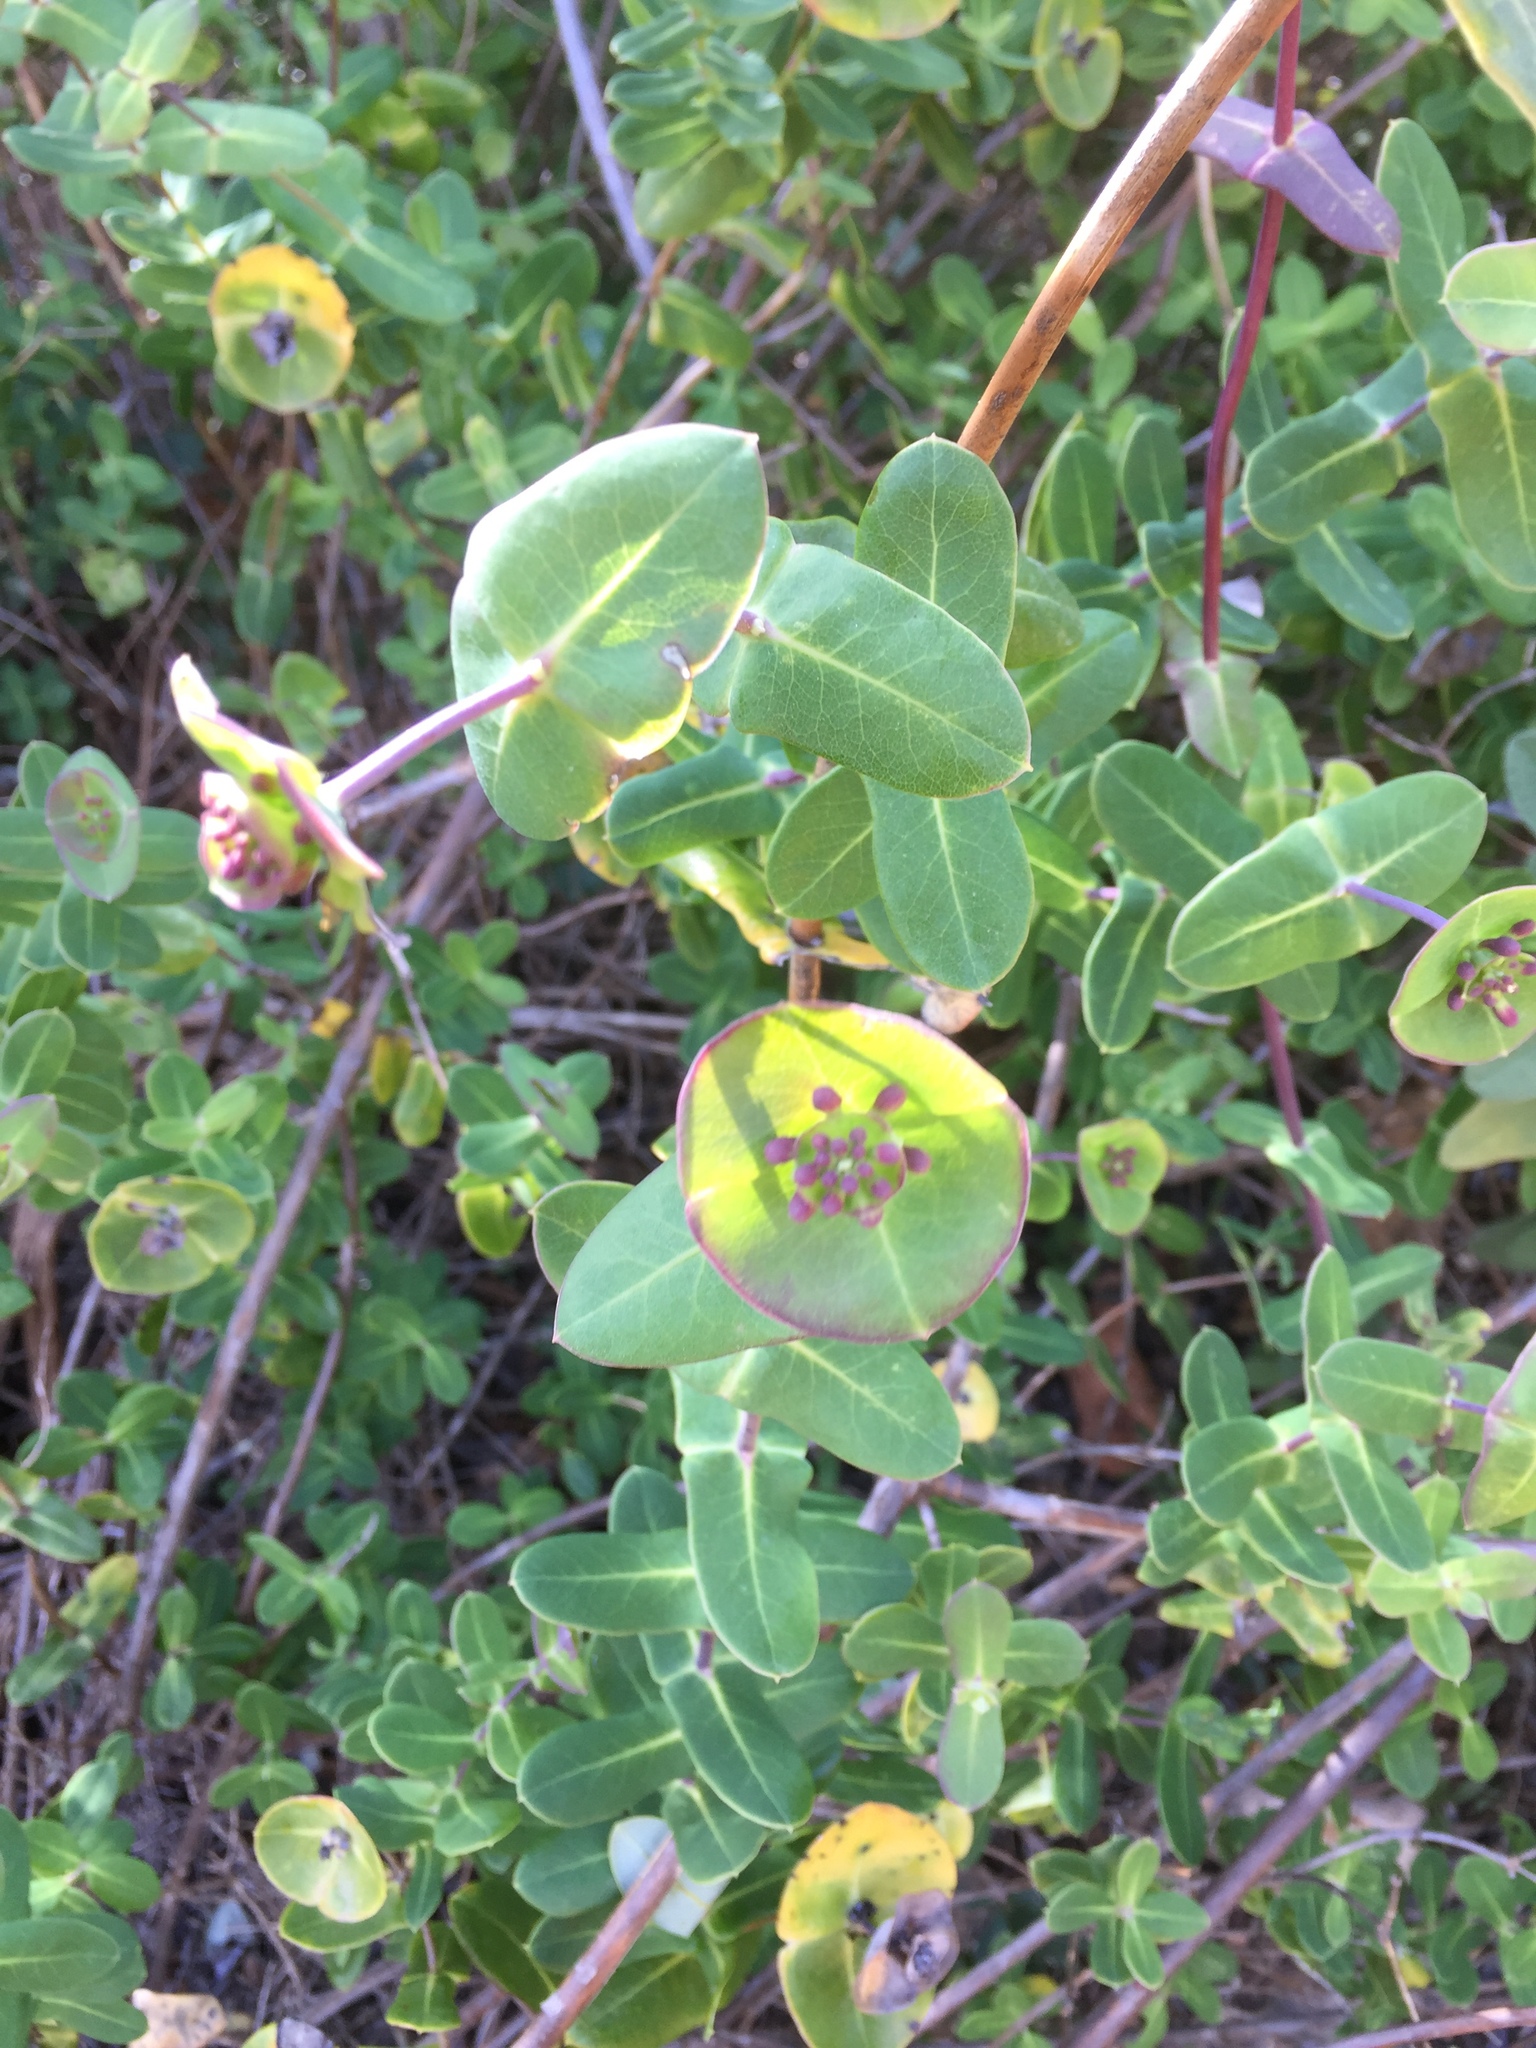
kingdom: Plantae
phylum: Tracheophyta
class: Magnoliopsida
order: Dipsacales
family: Caprifoliaceae
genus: Lonicera
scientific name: Lonicera implexa
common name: Minorca honeysuckle
